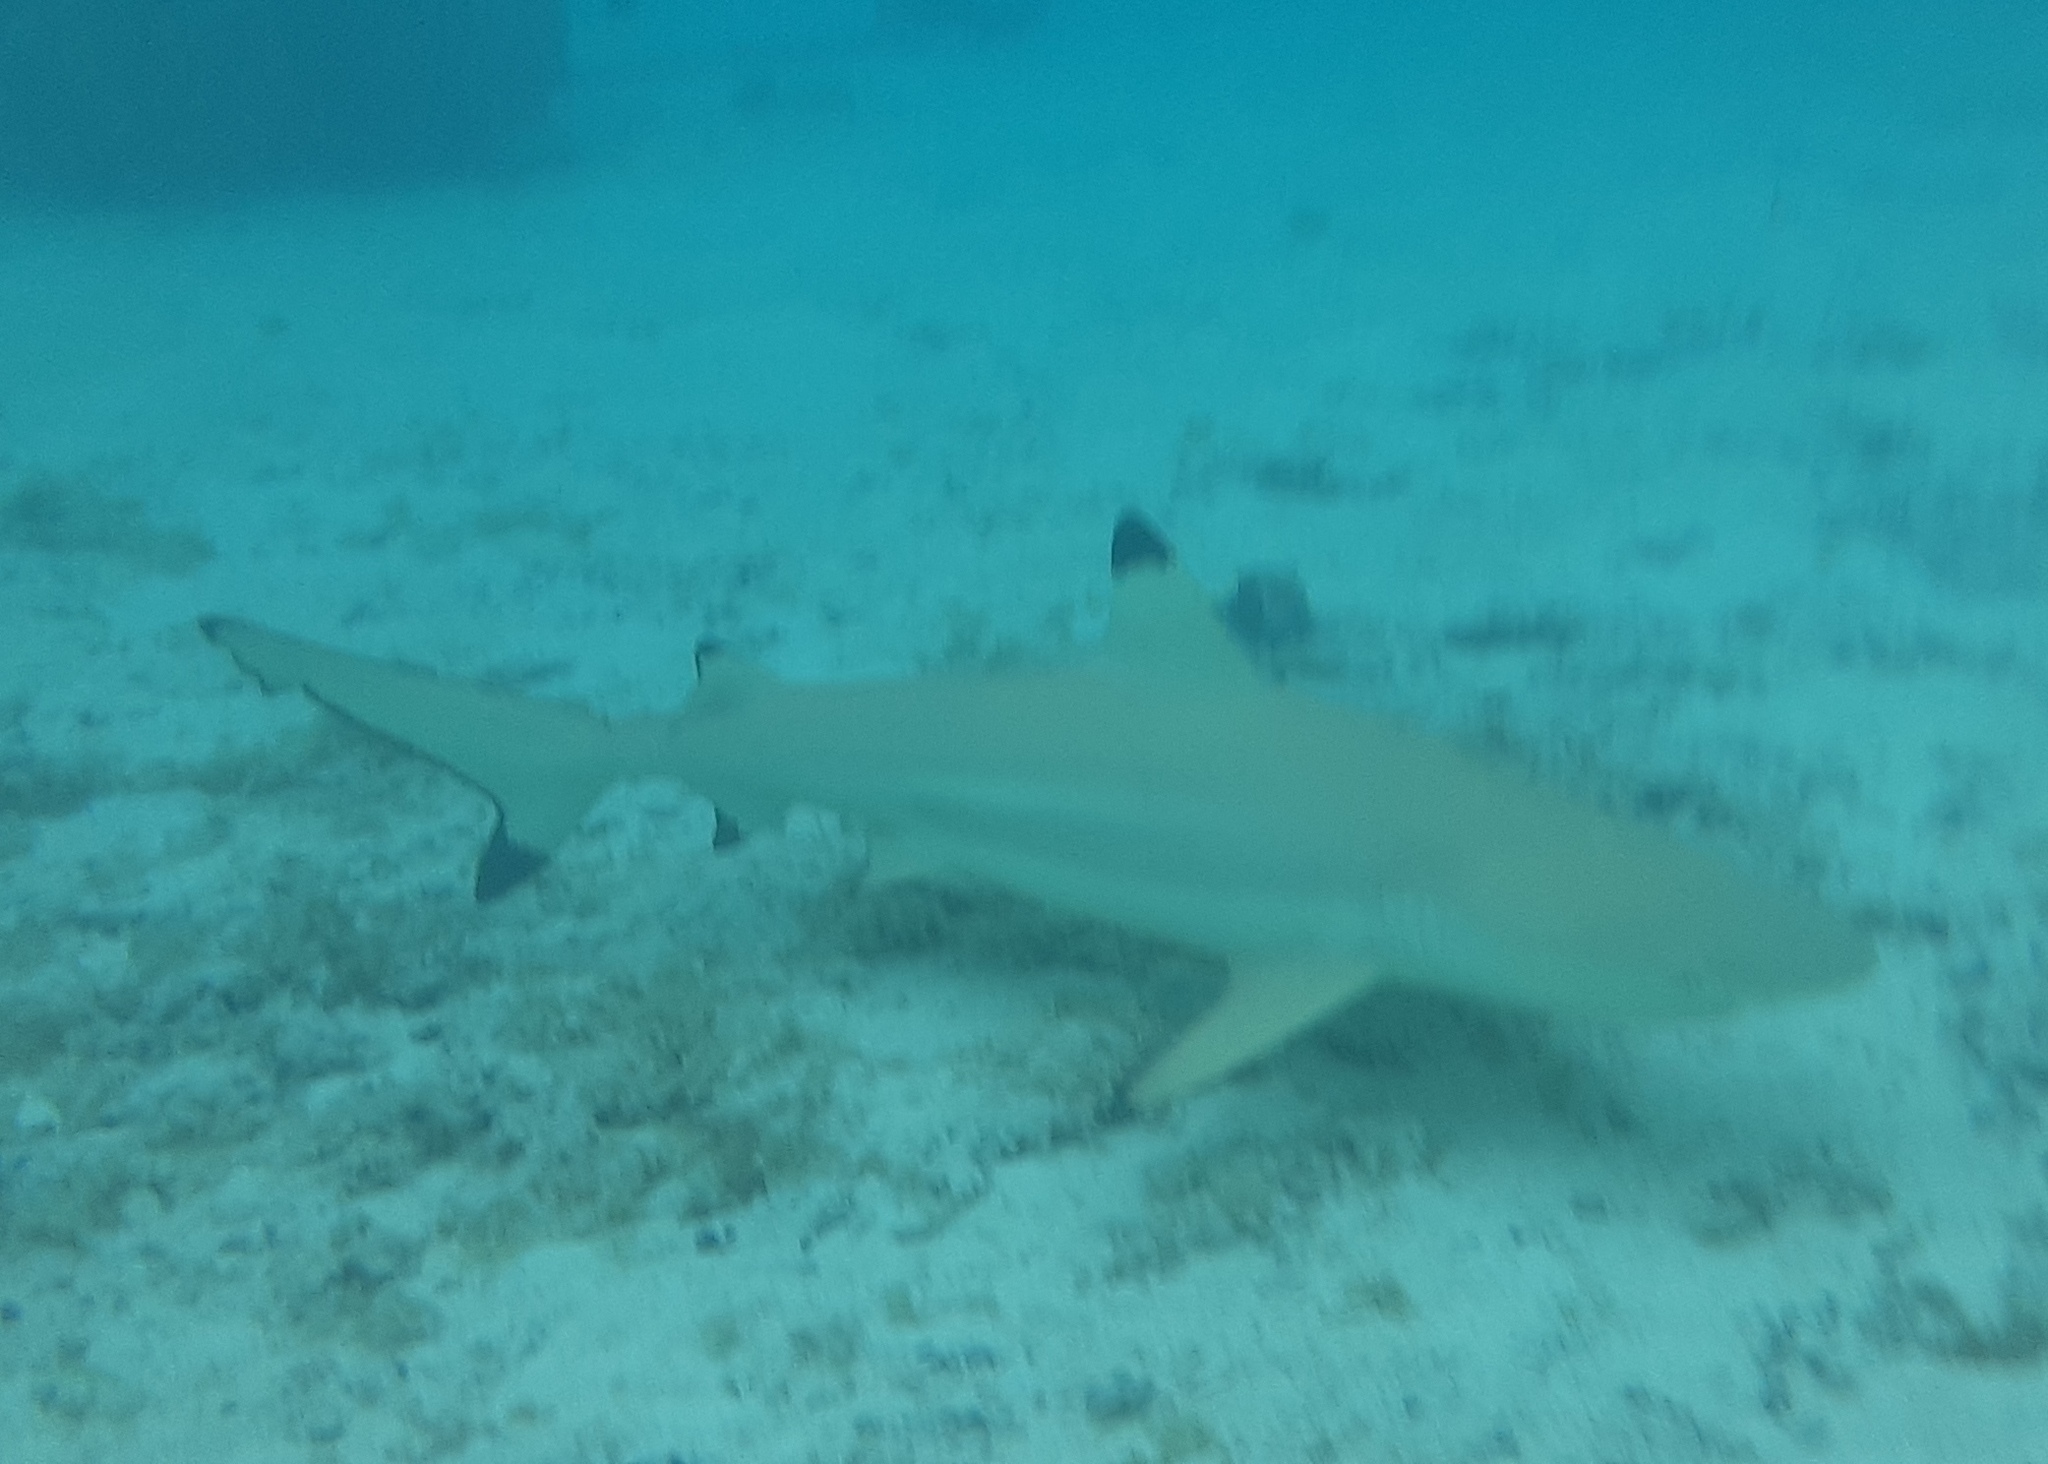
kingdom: Animalia
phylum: Chordata
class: Elasmobranchii
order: Carcharhiniformes
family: Carcharhinidae
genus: Carcharhinus
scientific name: Carcharhinus melanopterus
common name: Blacktip reef shark
